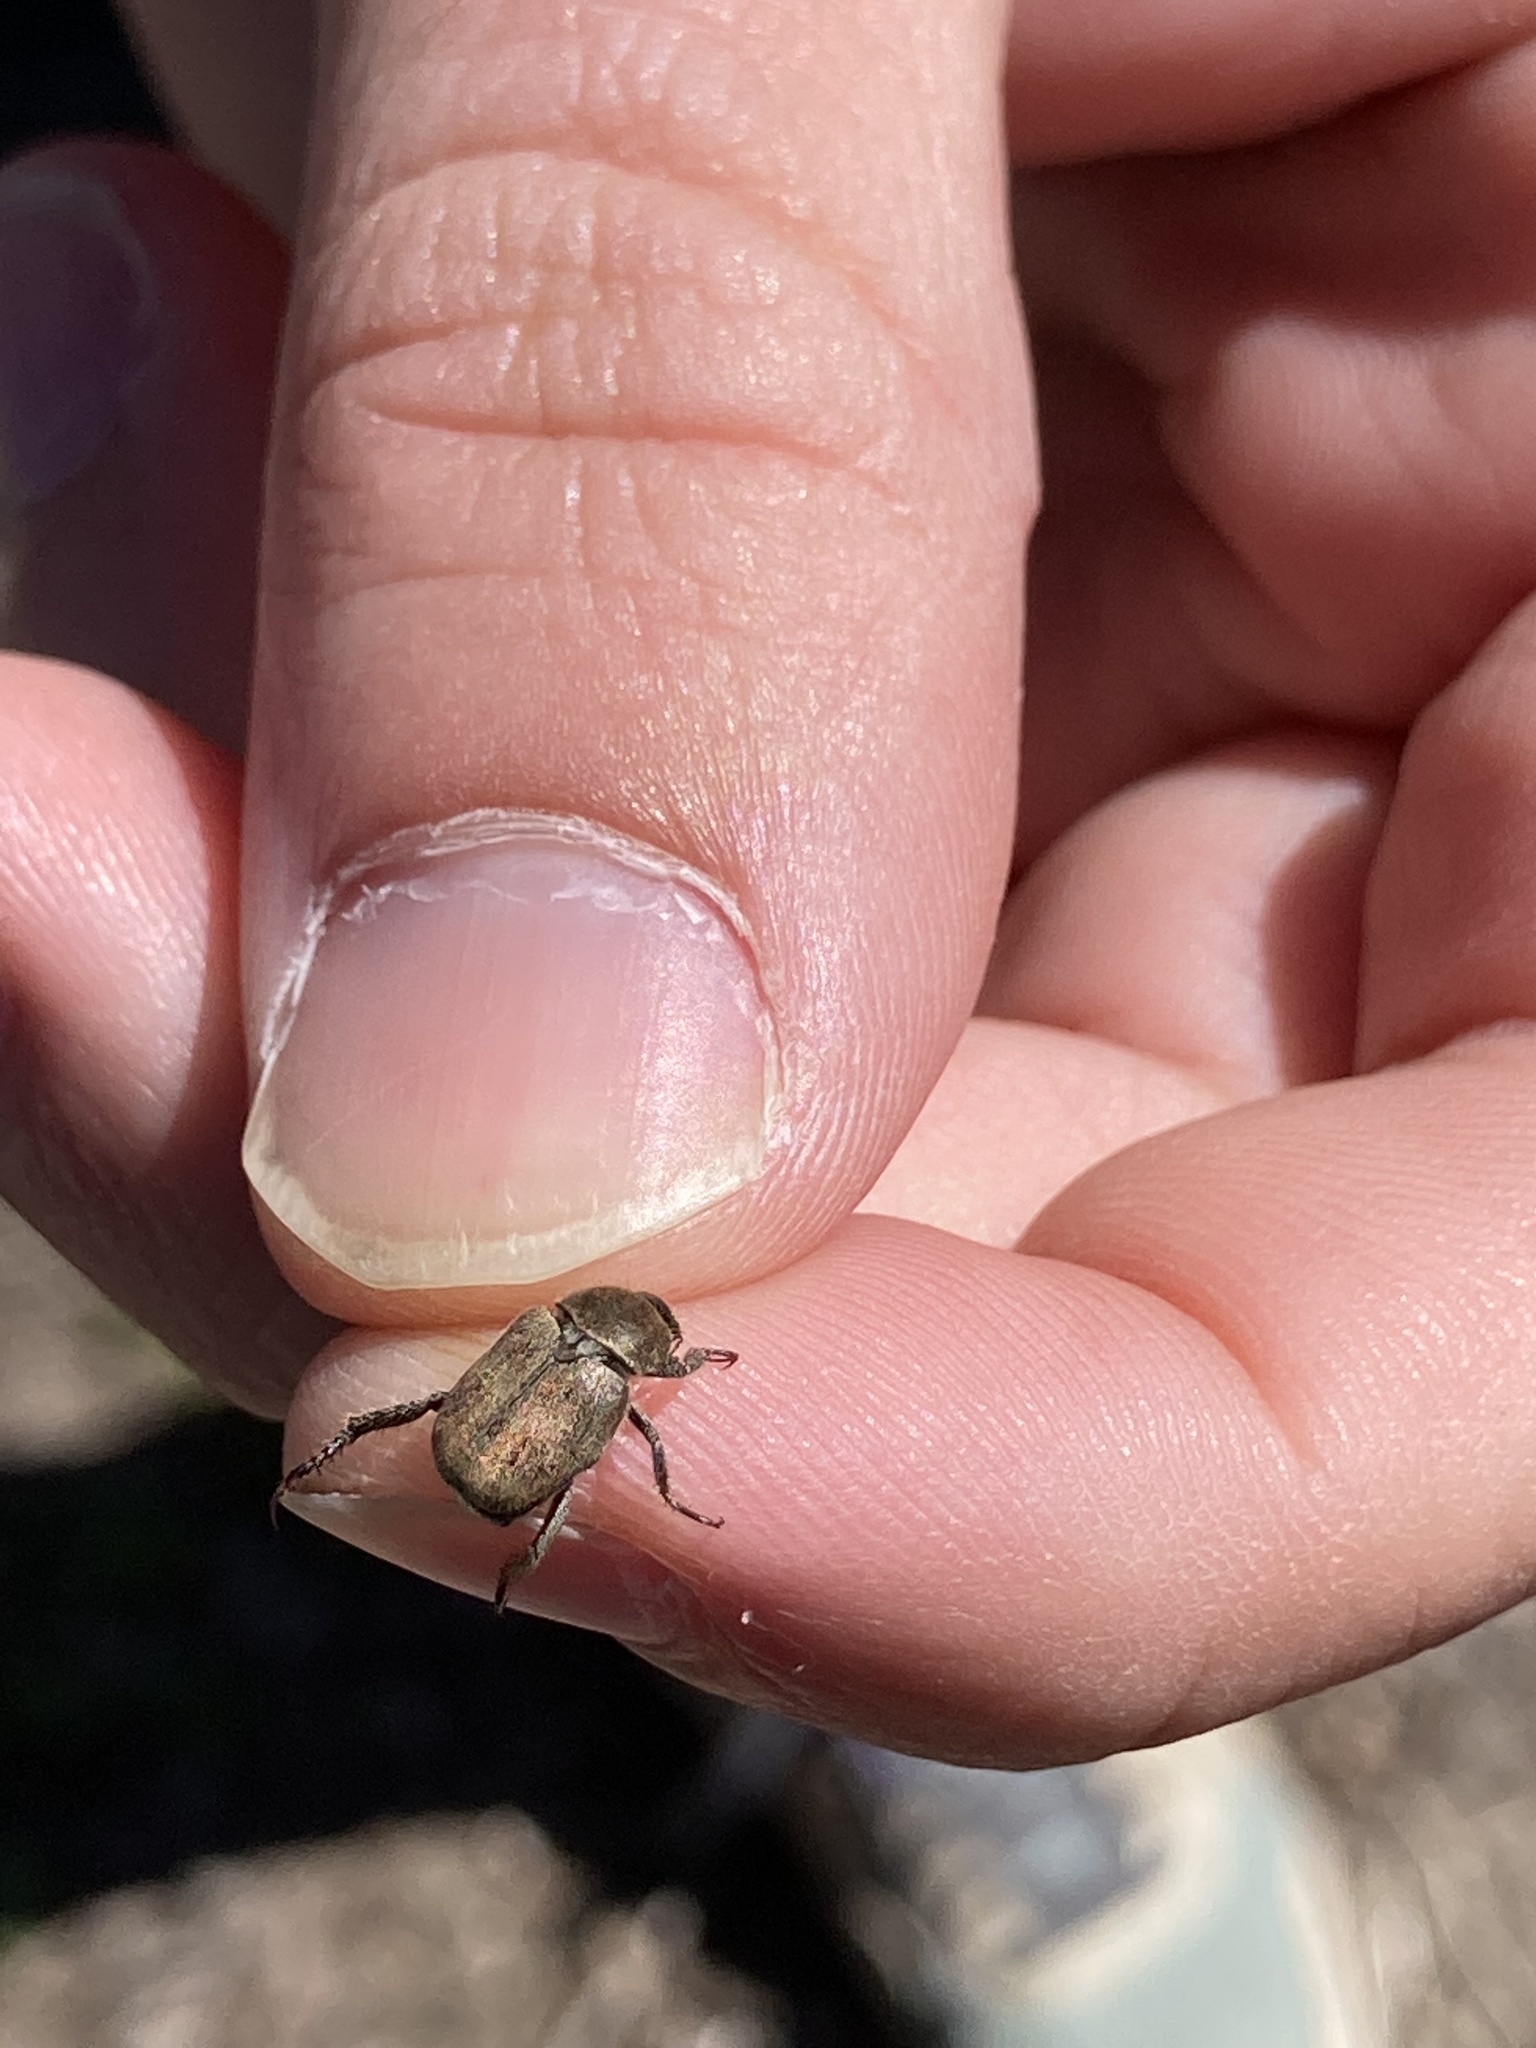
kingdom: Animalia
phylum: Arthropoda
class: Insecta
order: Coleoptera
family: Scarabaeidae
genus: Hoplia
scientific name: Hoplia trifasciata
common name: Three-lined hoplia
